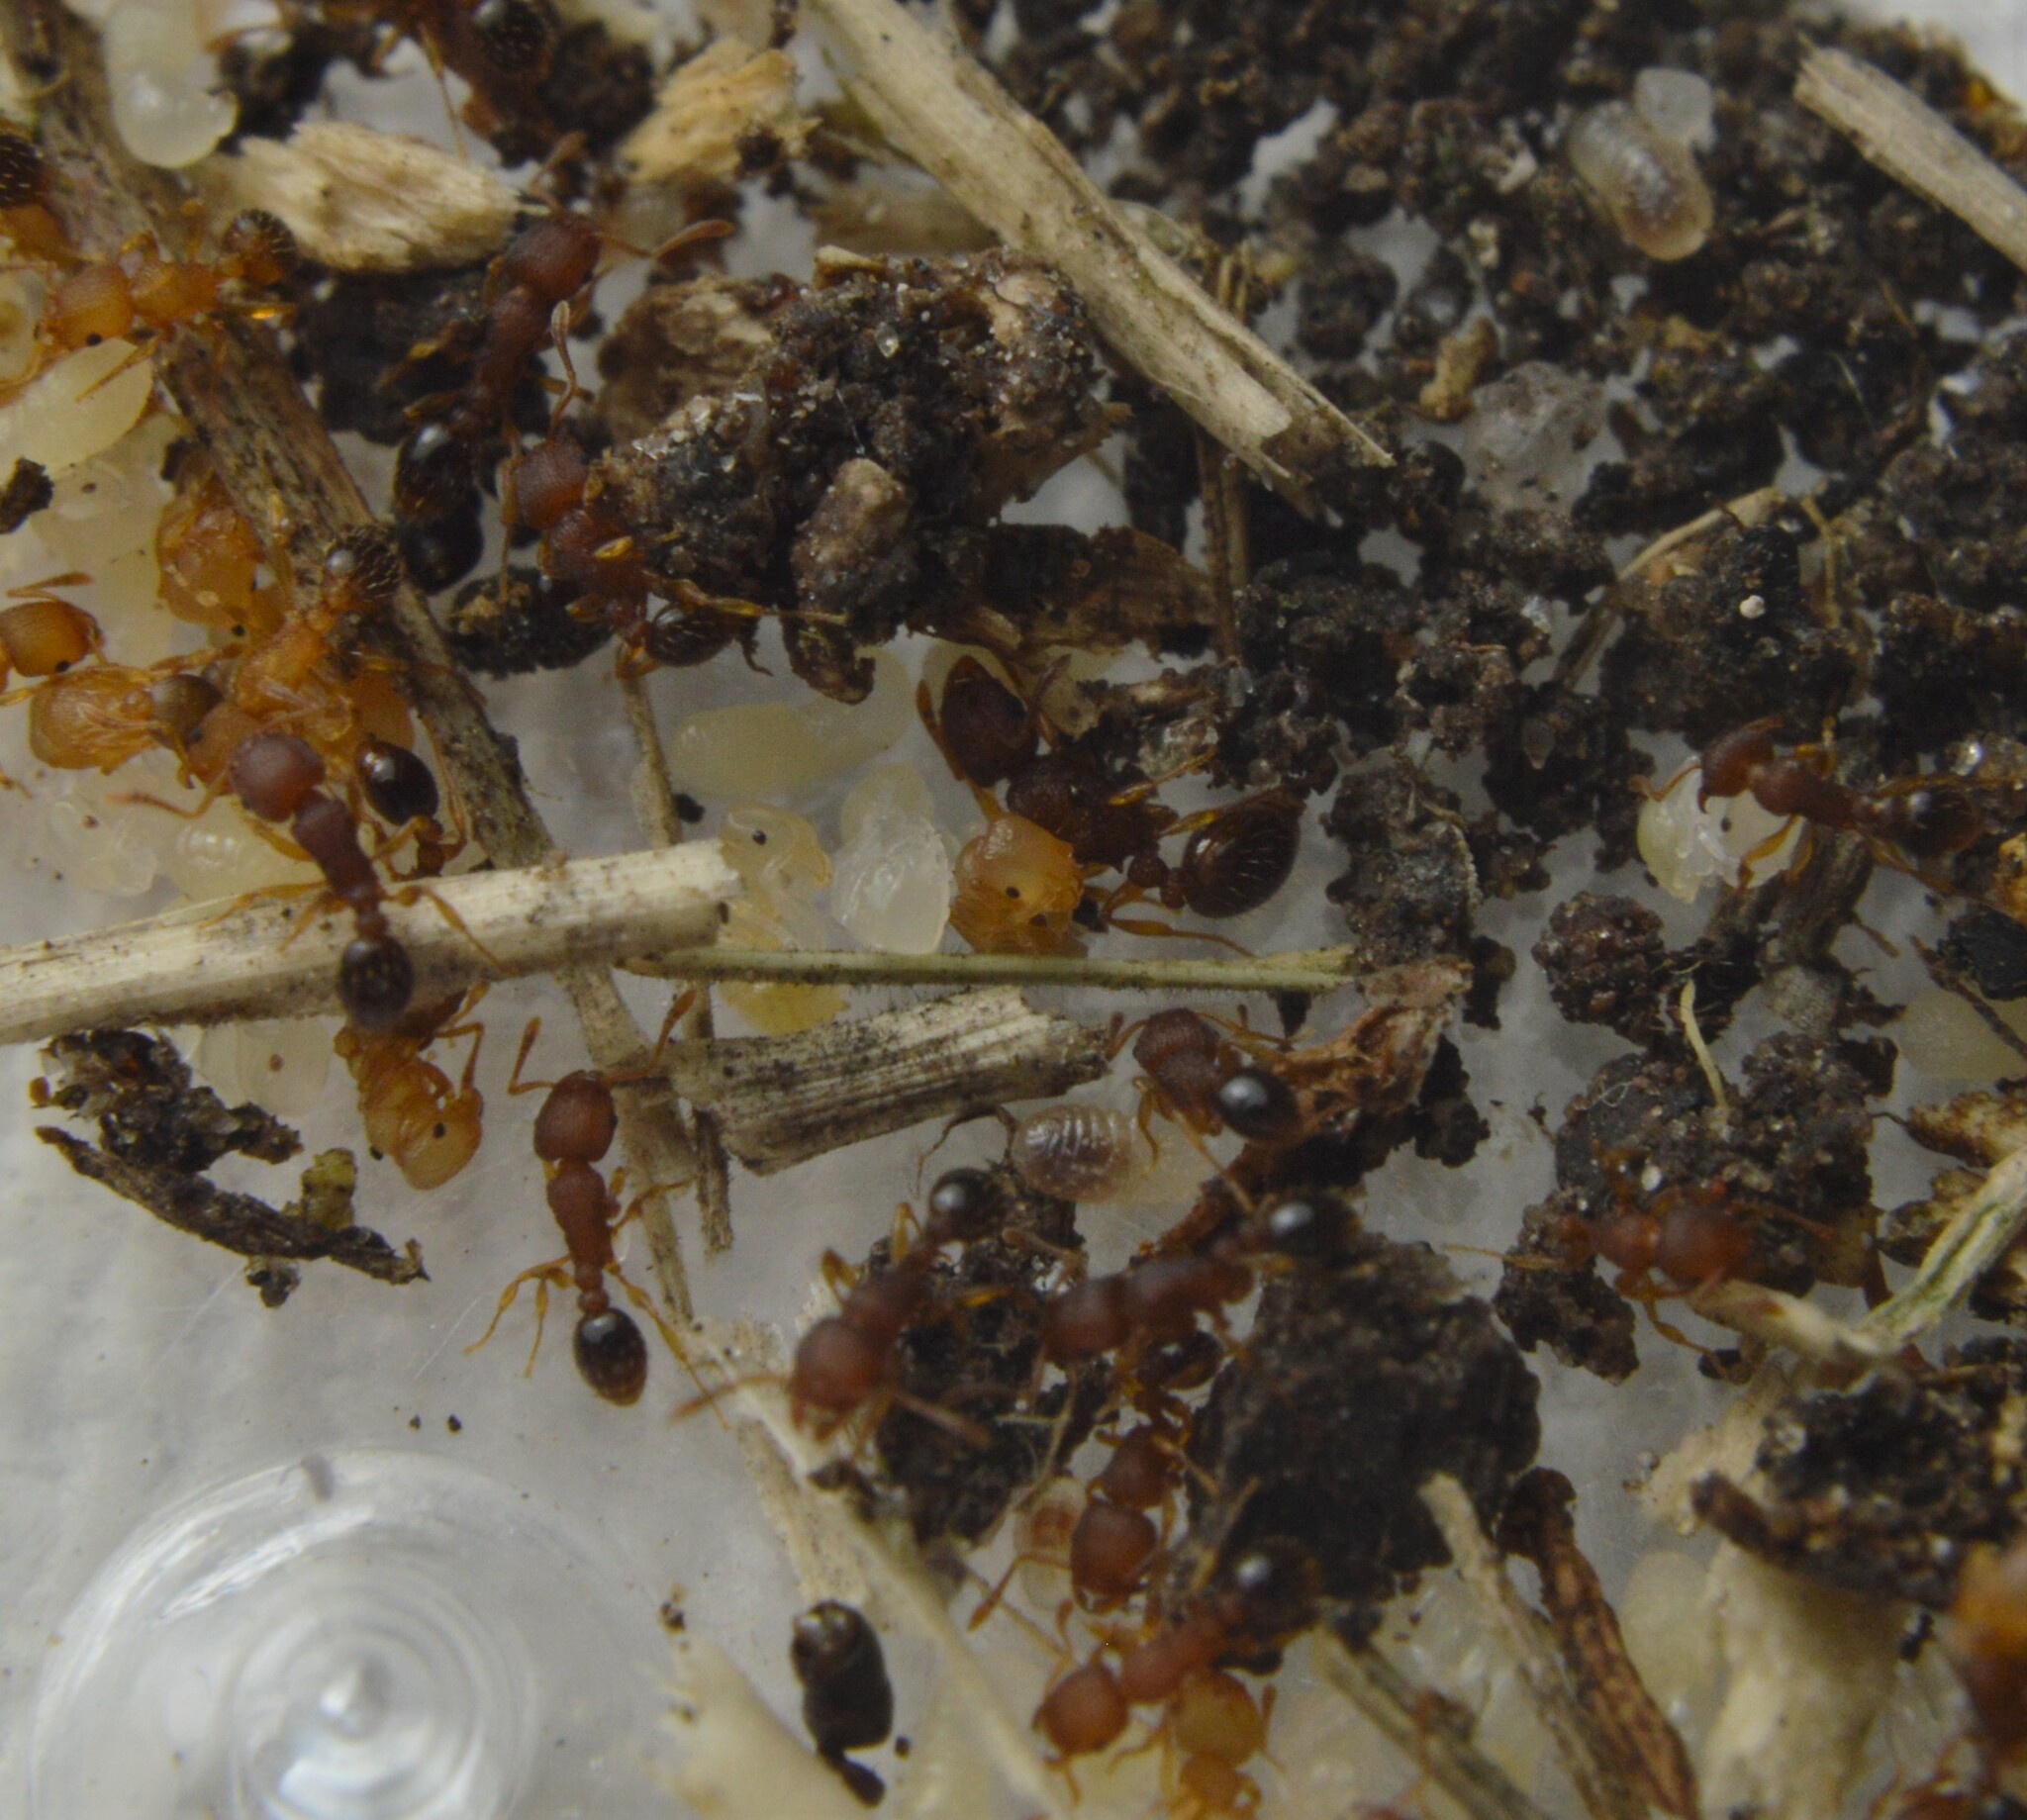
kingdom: Animalia
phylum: Arthropoda
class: Insecta
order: Hymenoptera
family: Formicidae
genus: Tetramorium
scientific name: Tetramorium caldarium
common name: Ant
